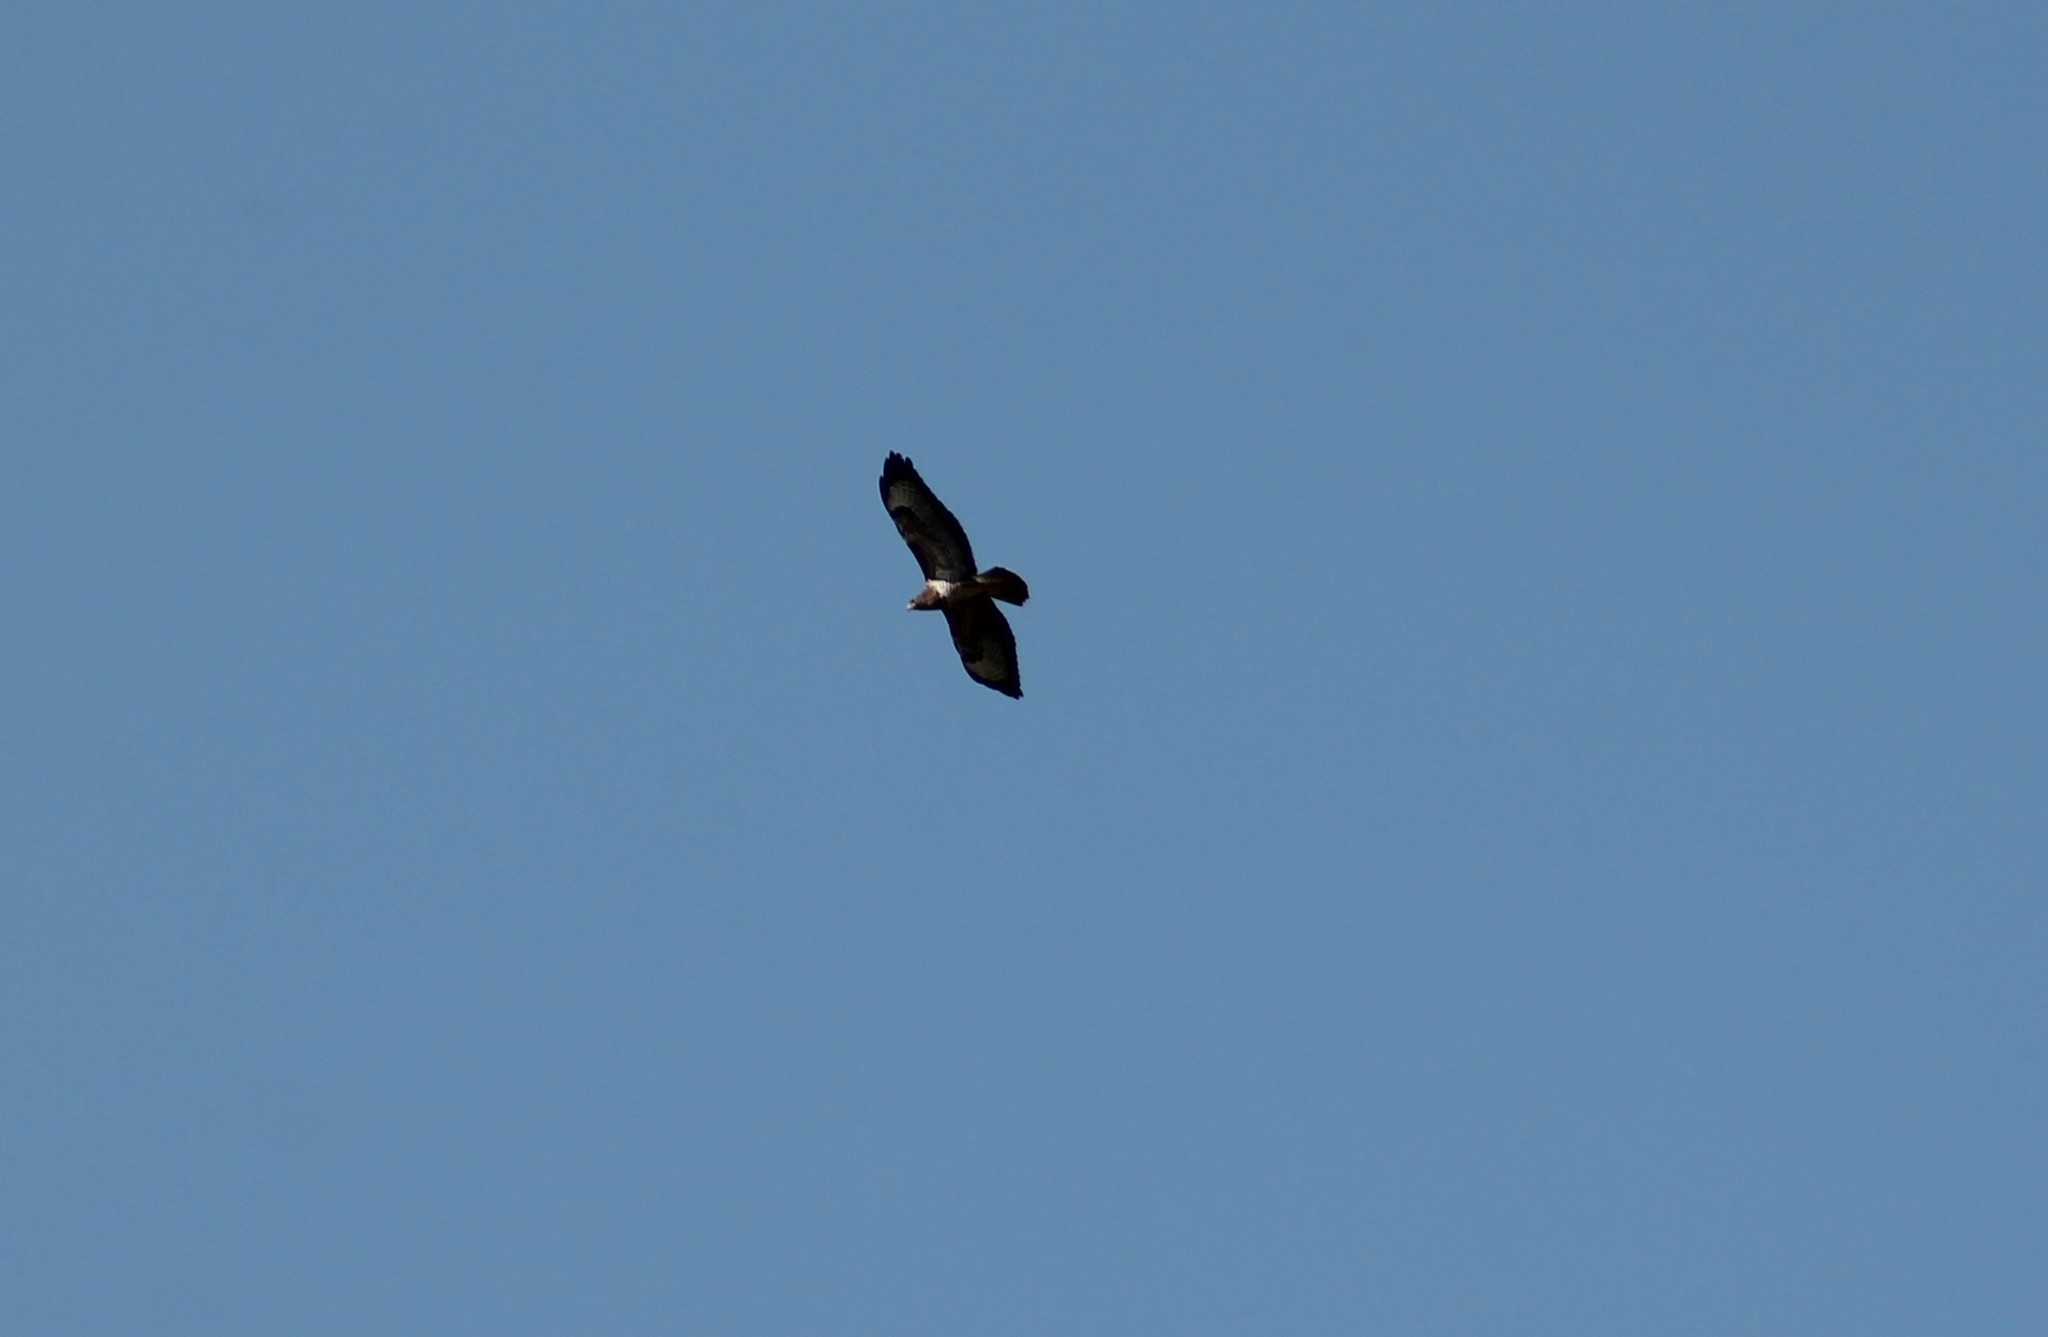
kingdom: Animalia
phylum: Chordata
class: Aves
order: Accipitriformes
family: Accipitridae
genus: Buteo
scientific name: Buteo buteo
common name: Common buzzard
